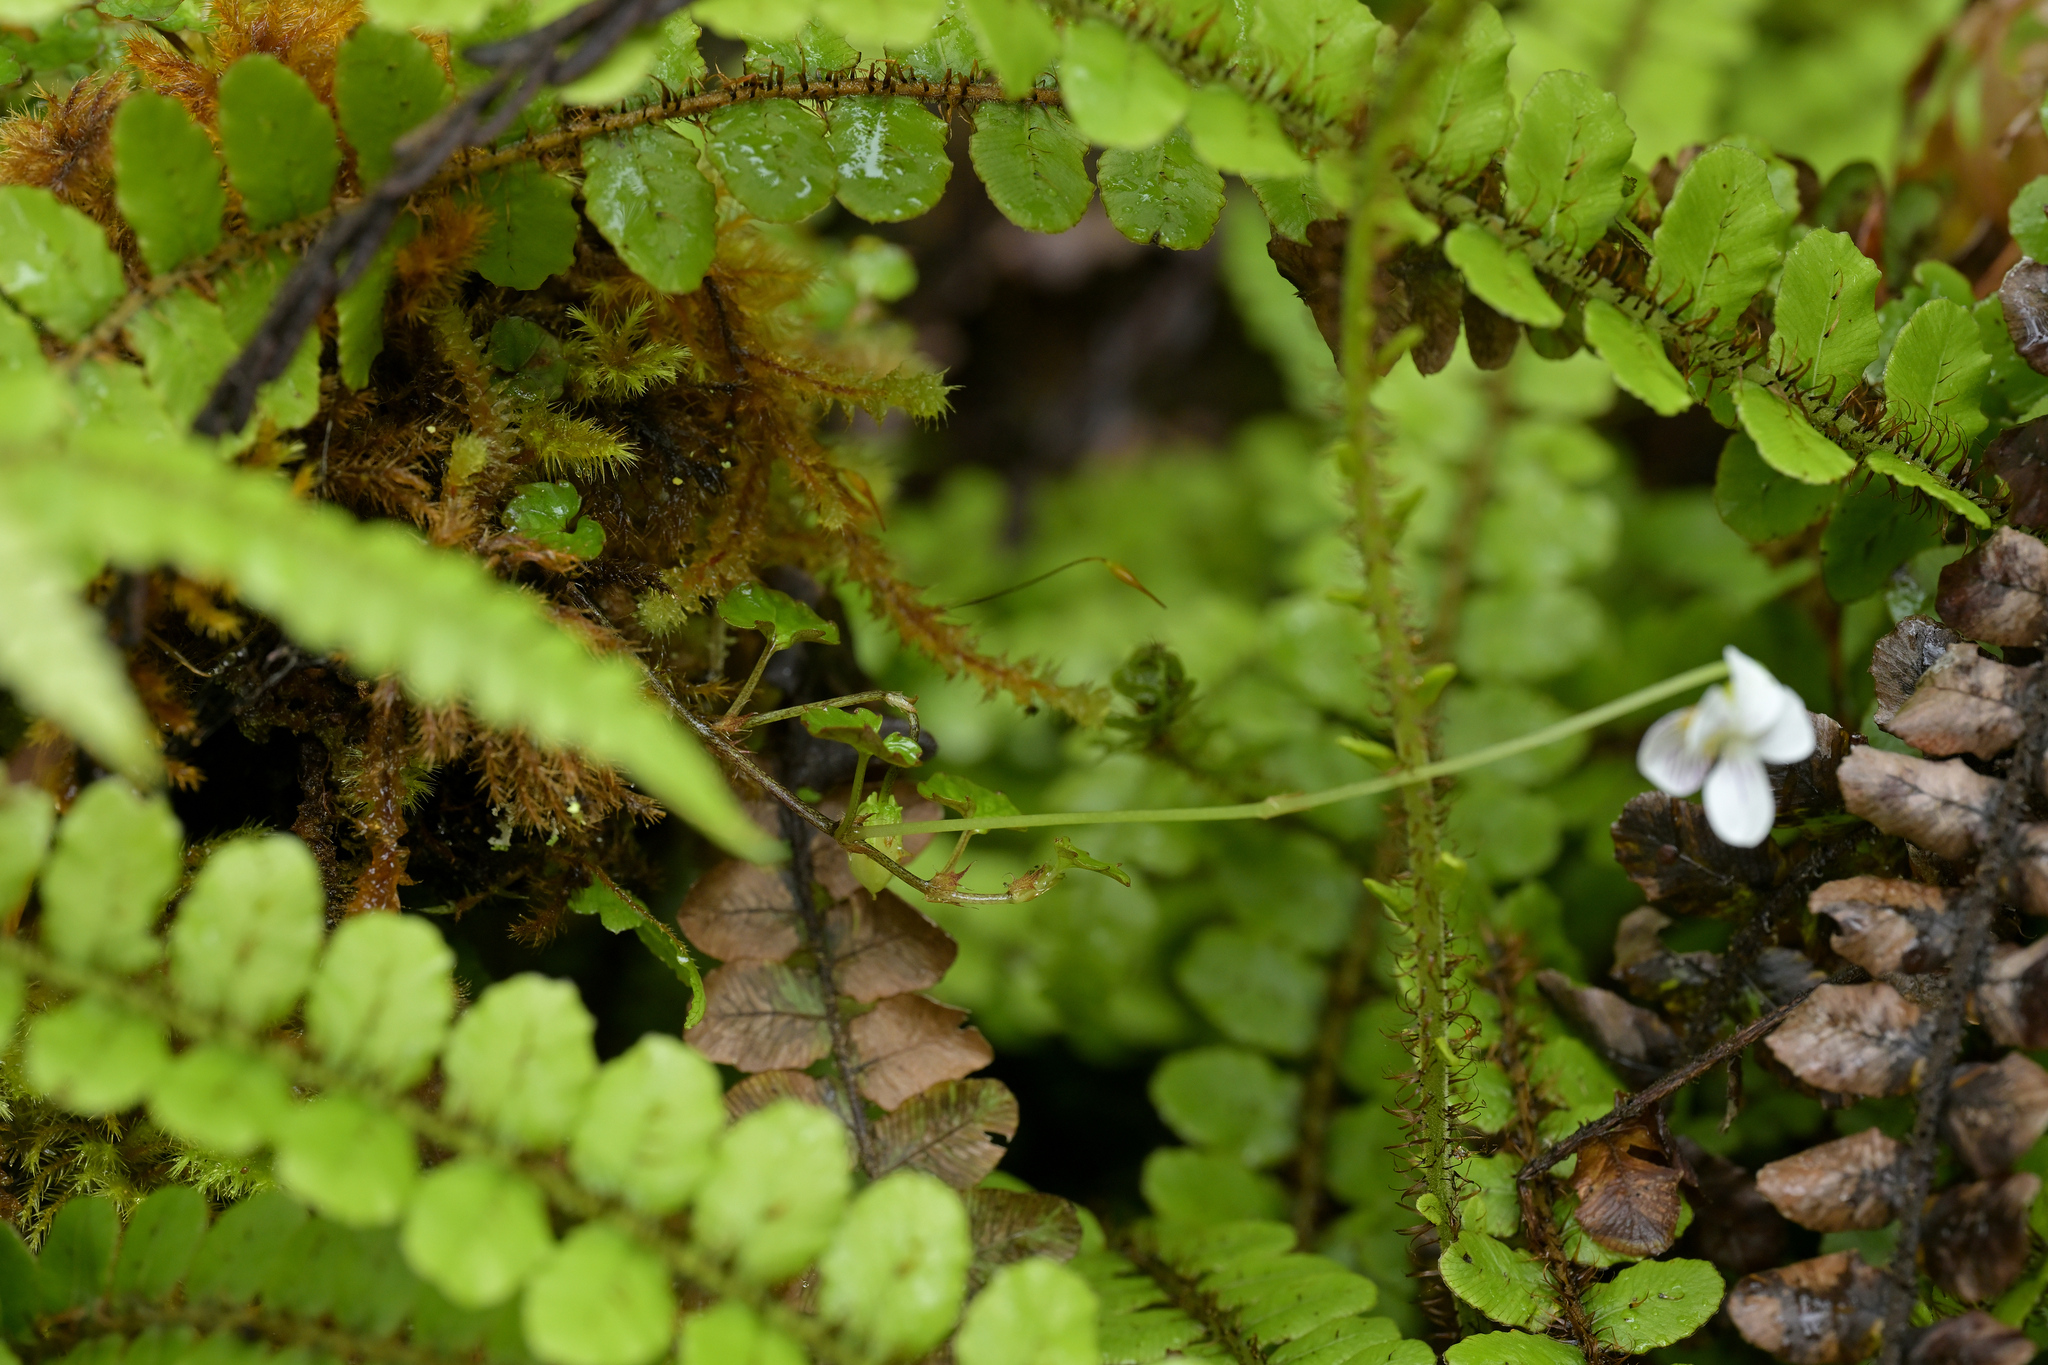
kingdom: Plantae
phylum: Tracheophyta
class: Magnoliopsida
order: Malpighiales
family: Violaceae
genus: Viola
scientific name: Viola filicaulis
